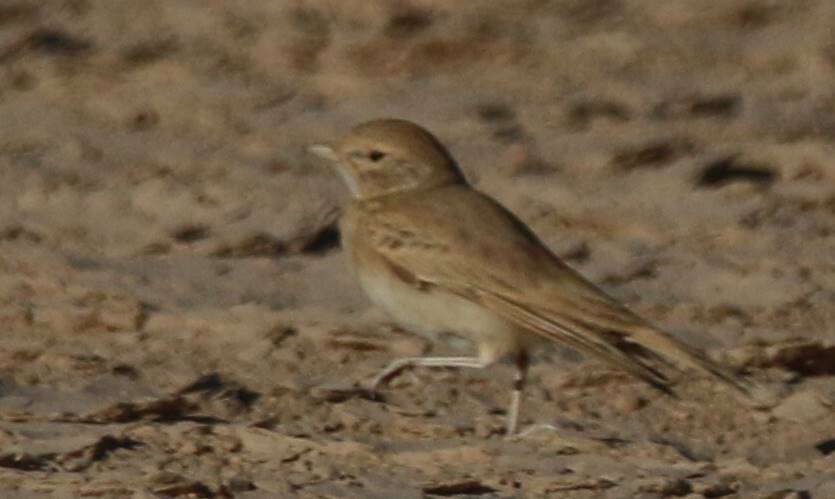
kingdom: Animalia
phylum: Chordata
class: Aves
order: Passeriformes
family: Alaudidae
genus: Ammomanes
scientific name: Ammomanes cinctura
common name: Bar-tailed lark
